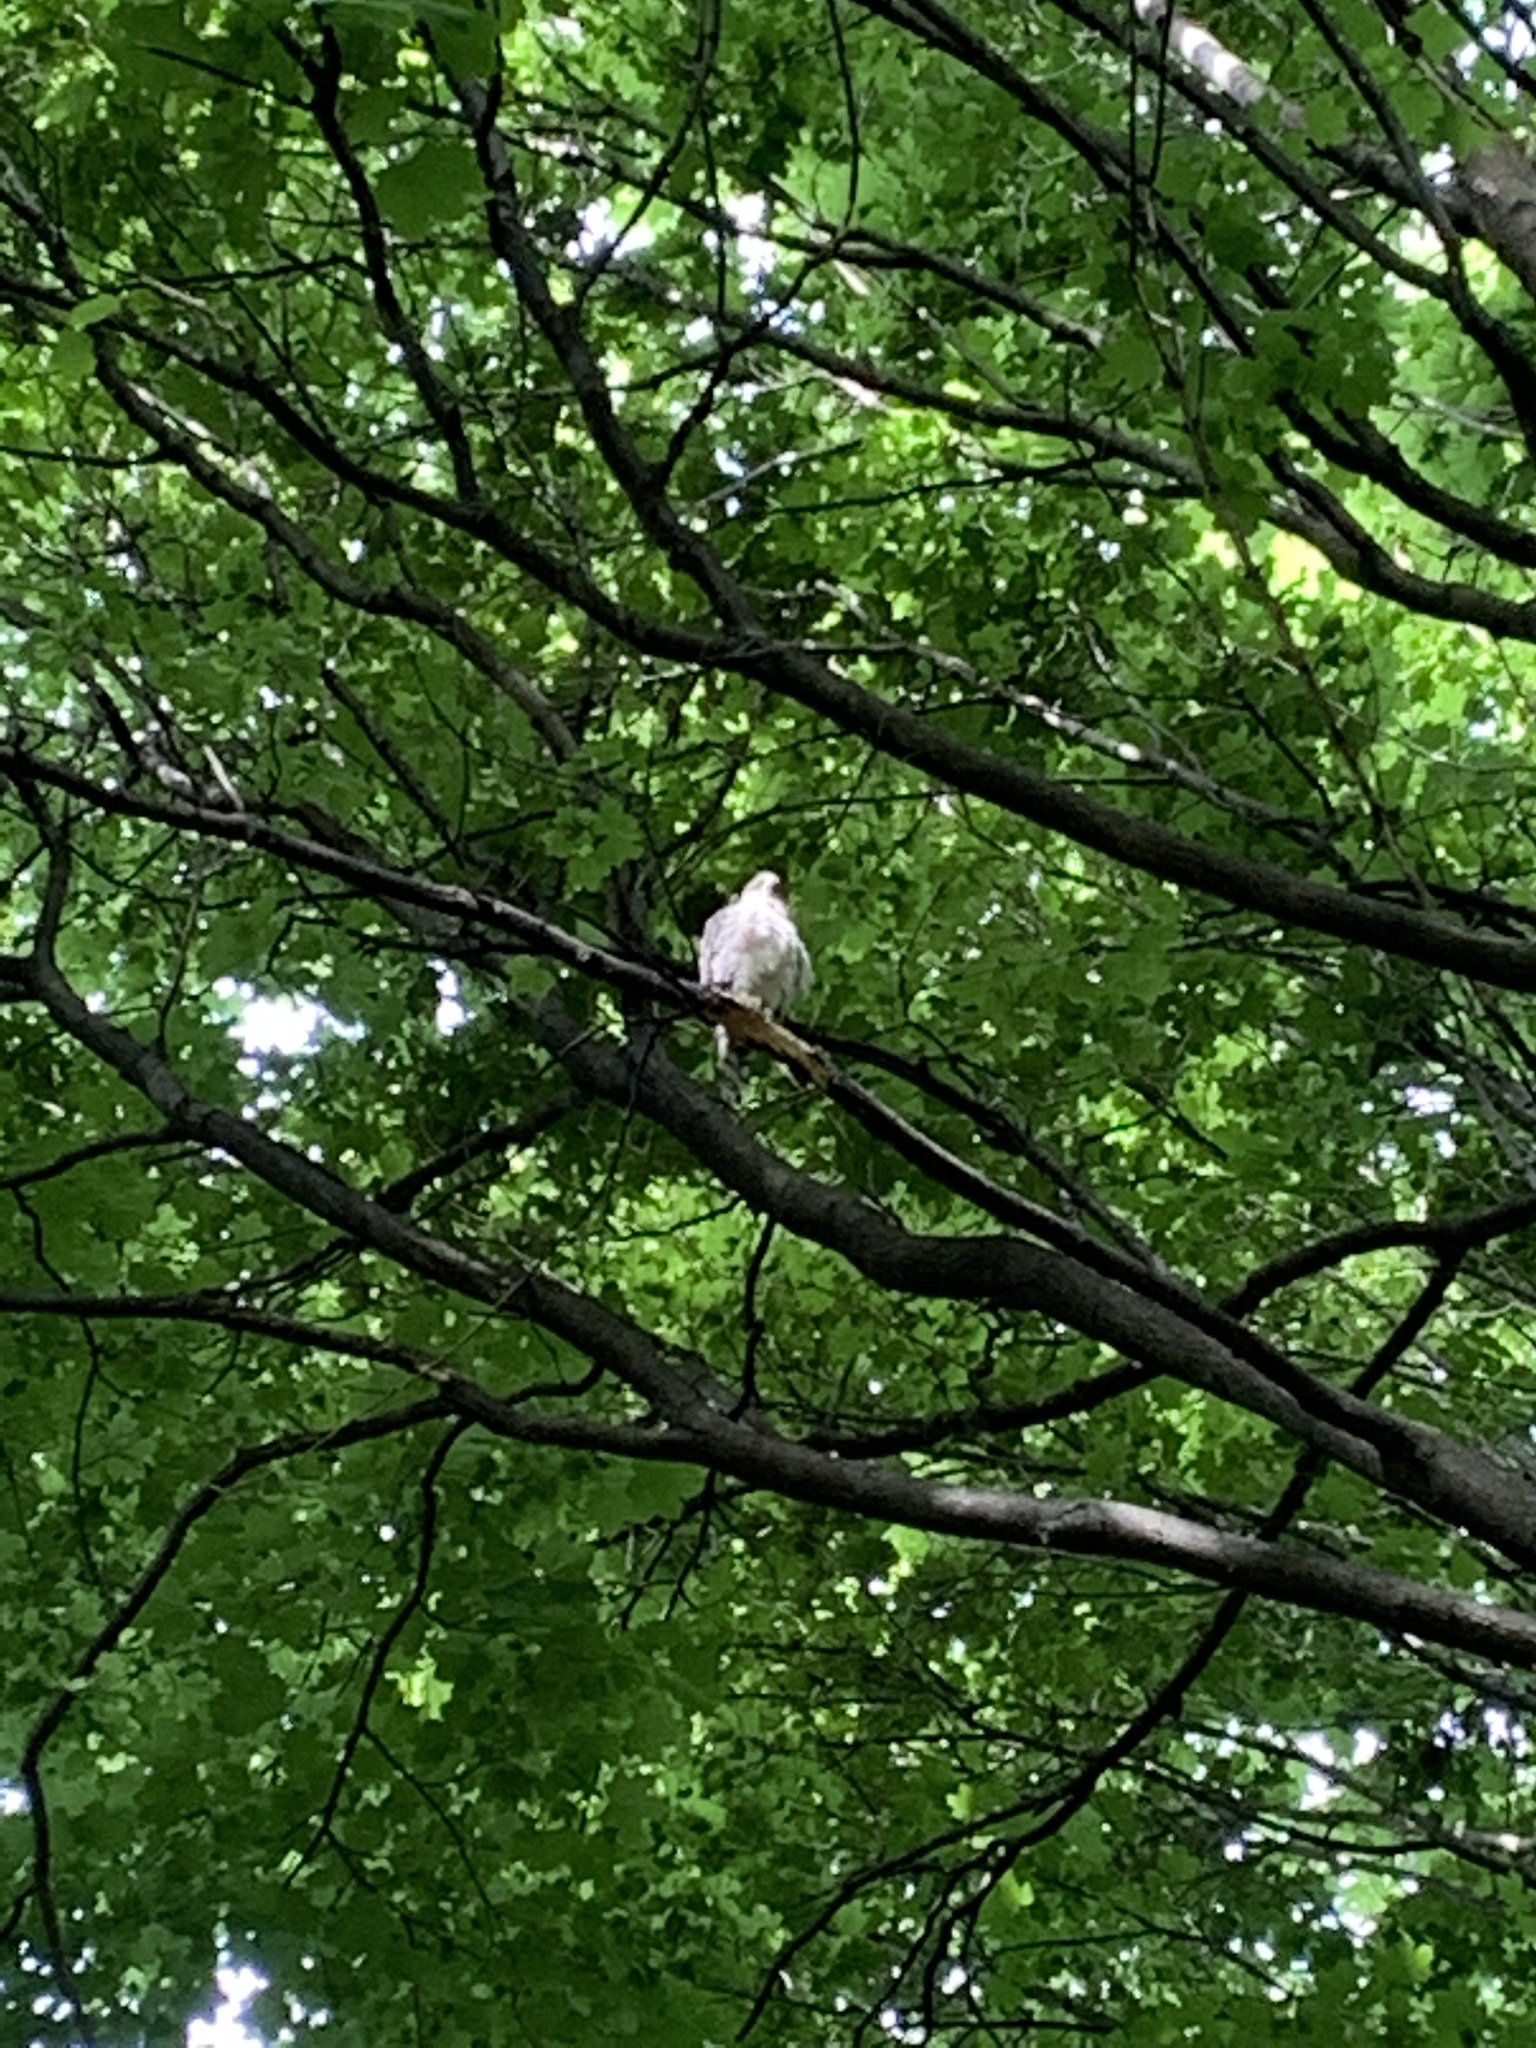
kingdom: Animalia
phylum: Chordata
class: Aves
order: Accipitriformes
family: Accipitridae
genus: Accipiter
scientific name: Accipiter cooperii
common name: Cooper's hawk
